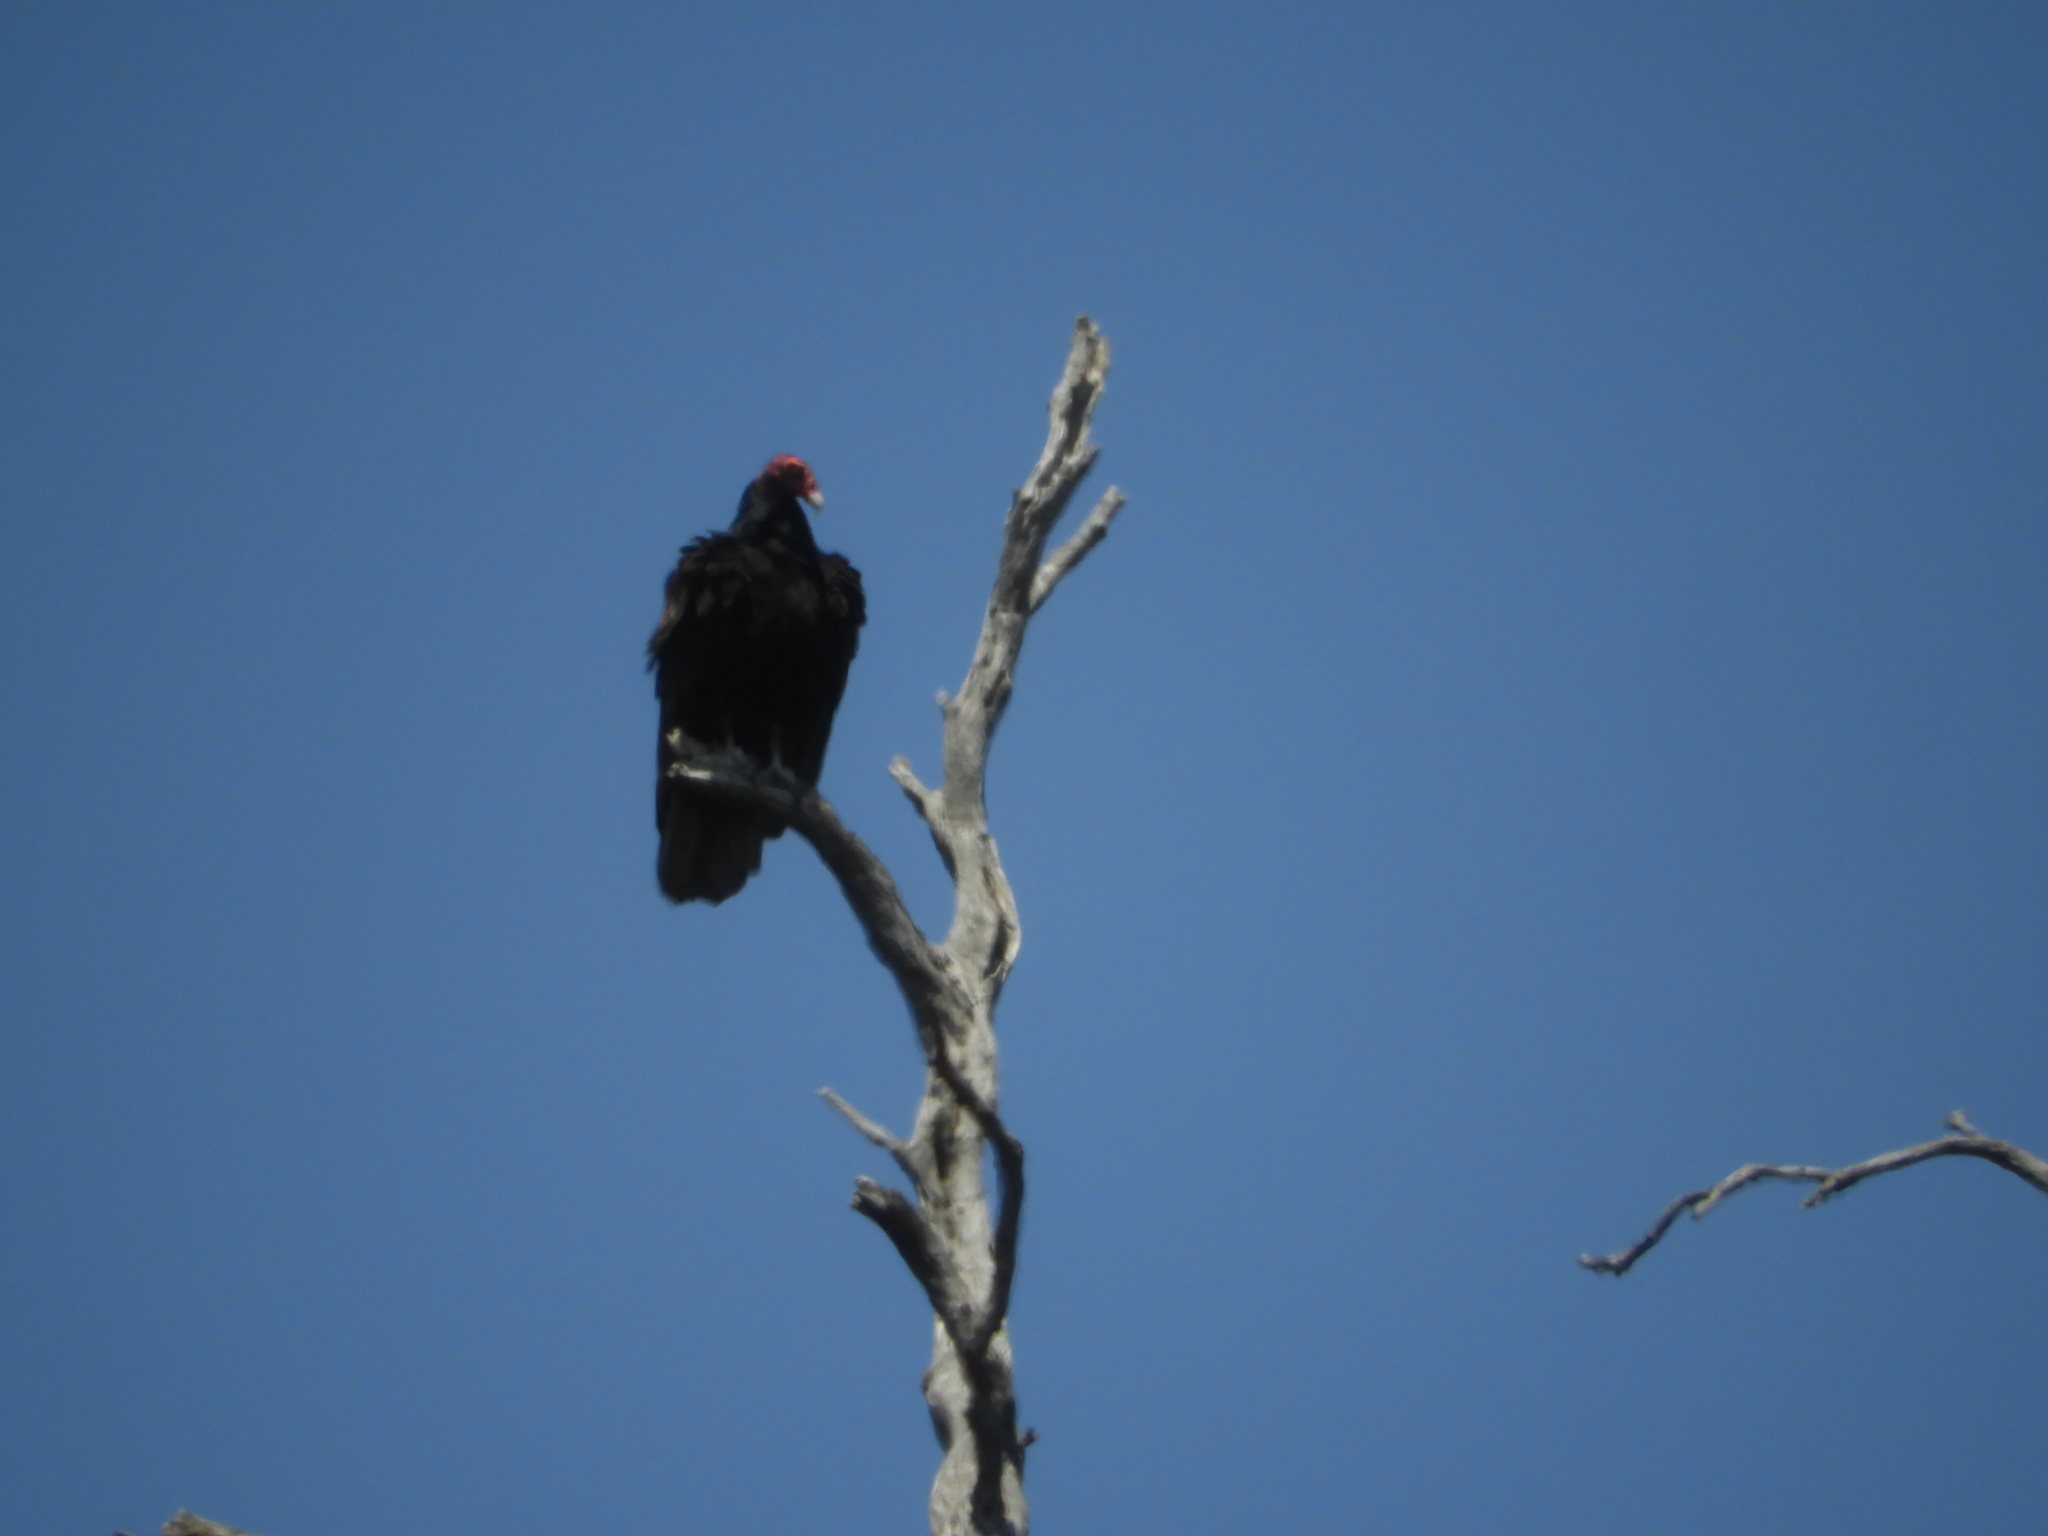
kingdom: Animalia
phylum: Chordata
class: Aves
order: Accipitriformes
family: Cathartidae
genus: Cathartes
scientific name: Cathartes aura
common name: Turkey vulture
